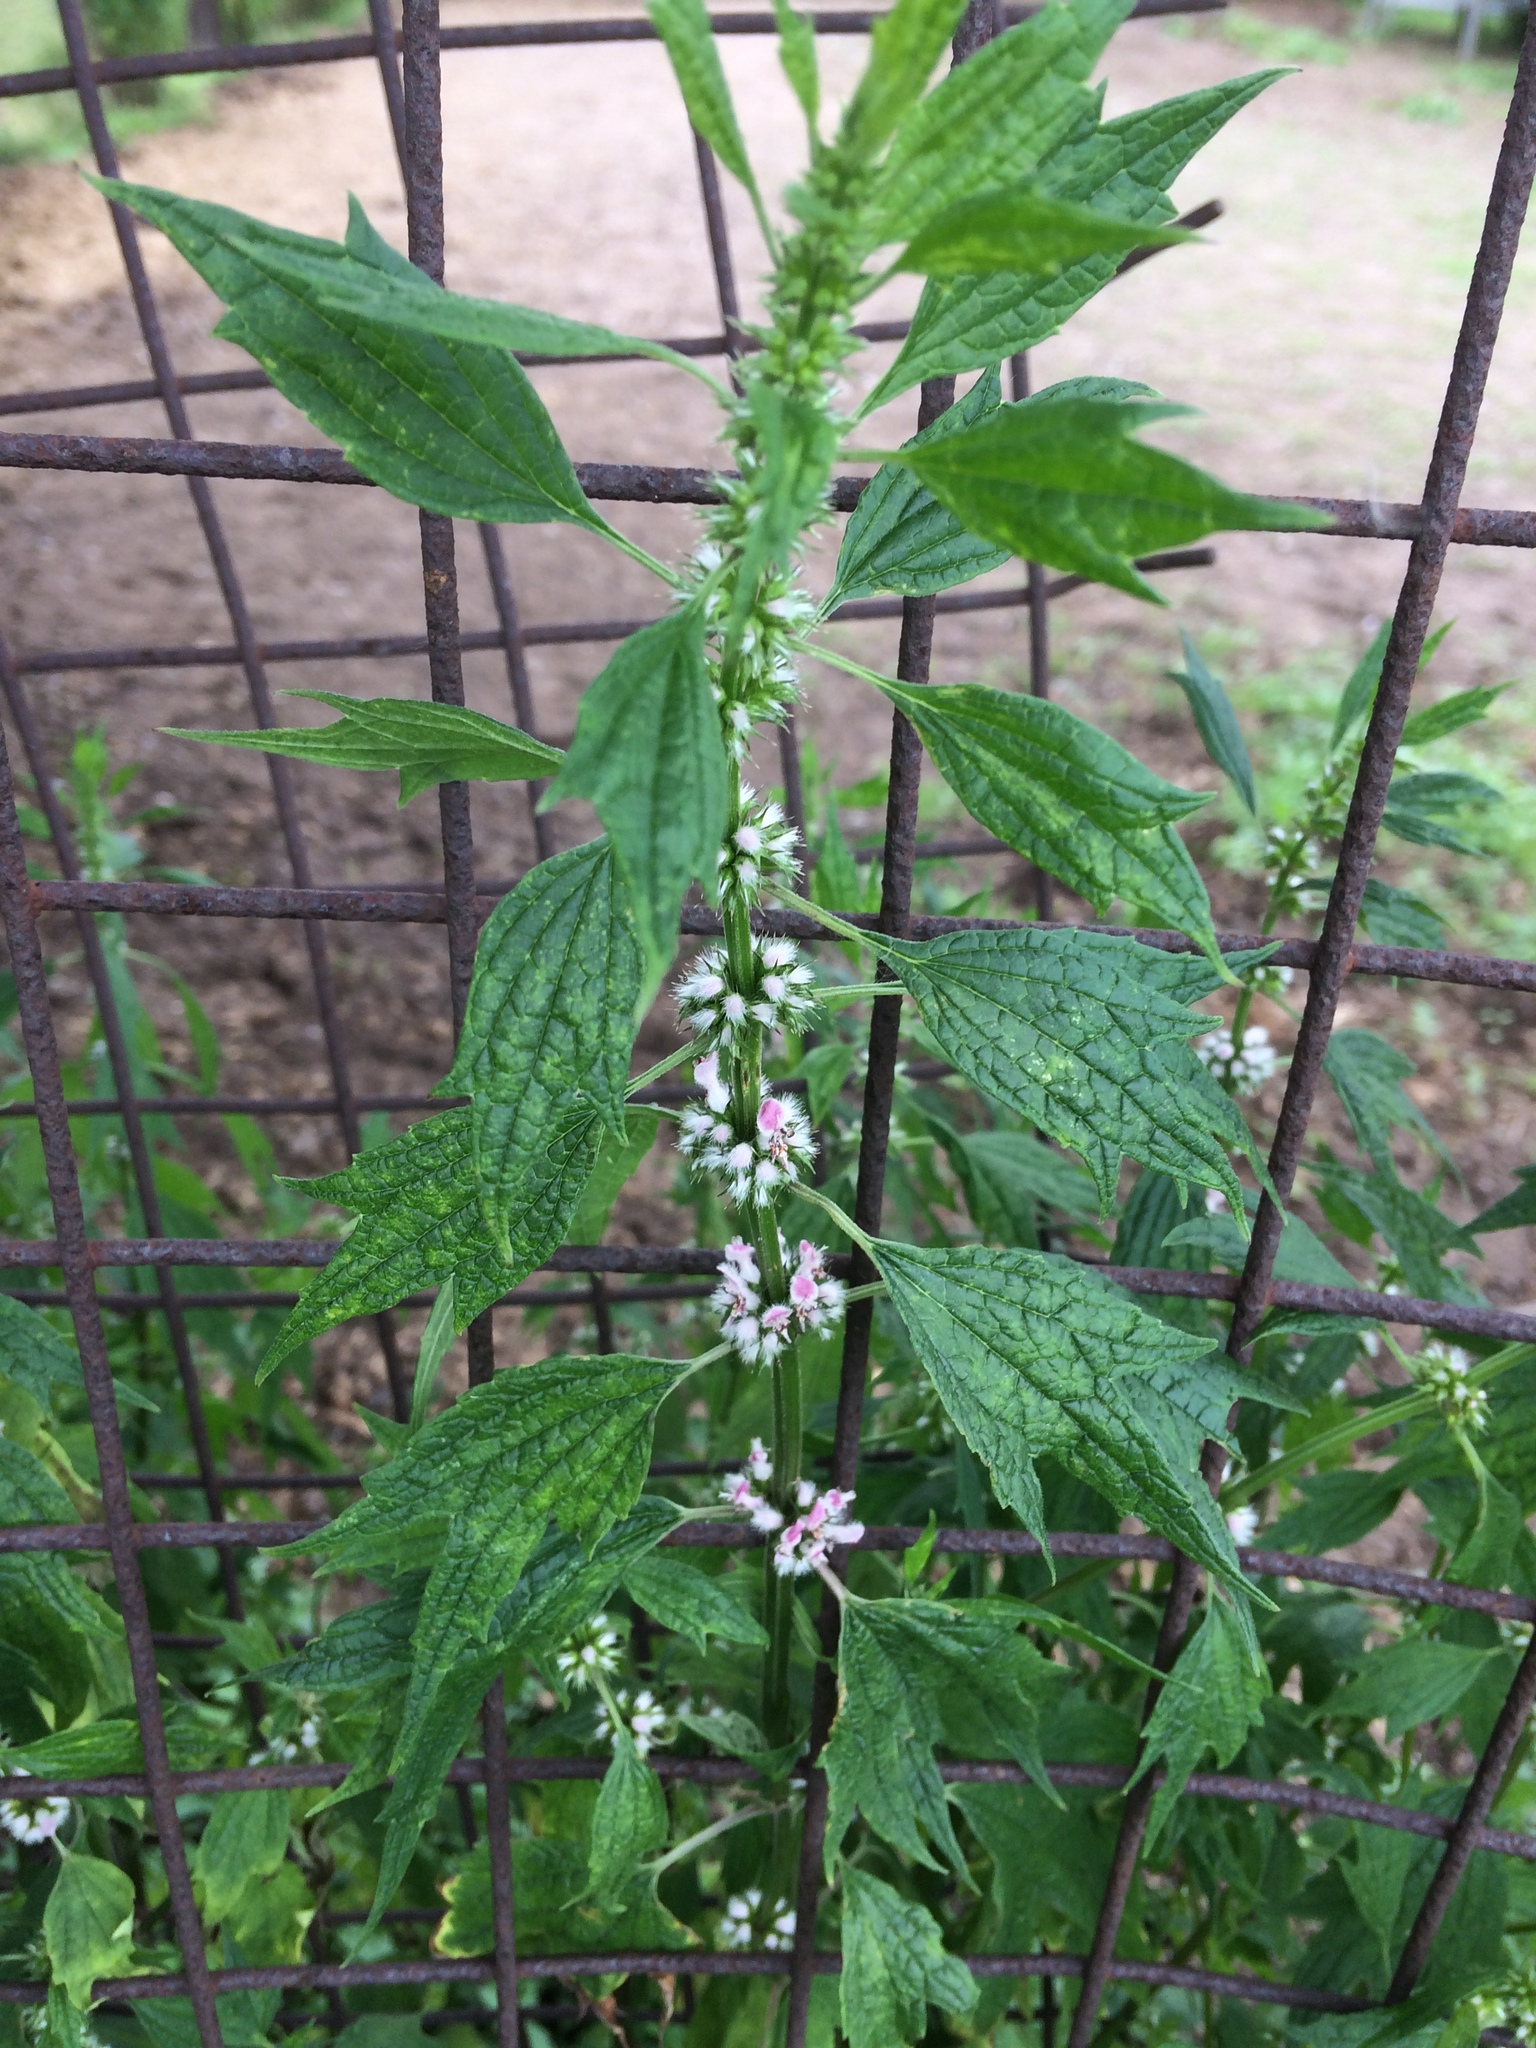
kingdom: Plantae
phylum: Tracheophyta
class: Magnoliopsida
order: Lamiales
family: Lamiaceae
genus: Leonurus
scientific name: Leonurus cardiaca
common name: Motherwort
